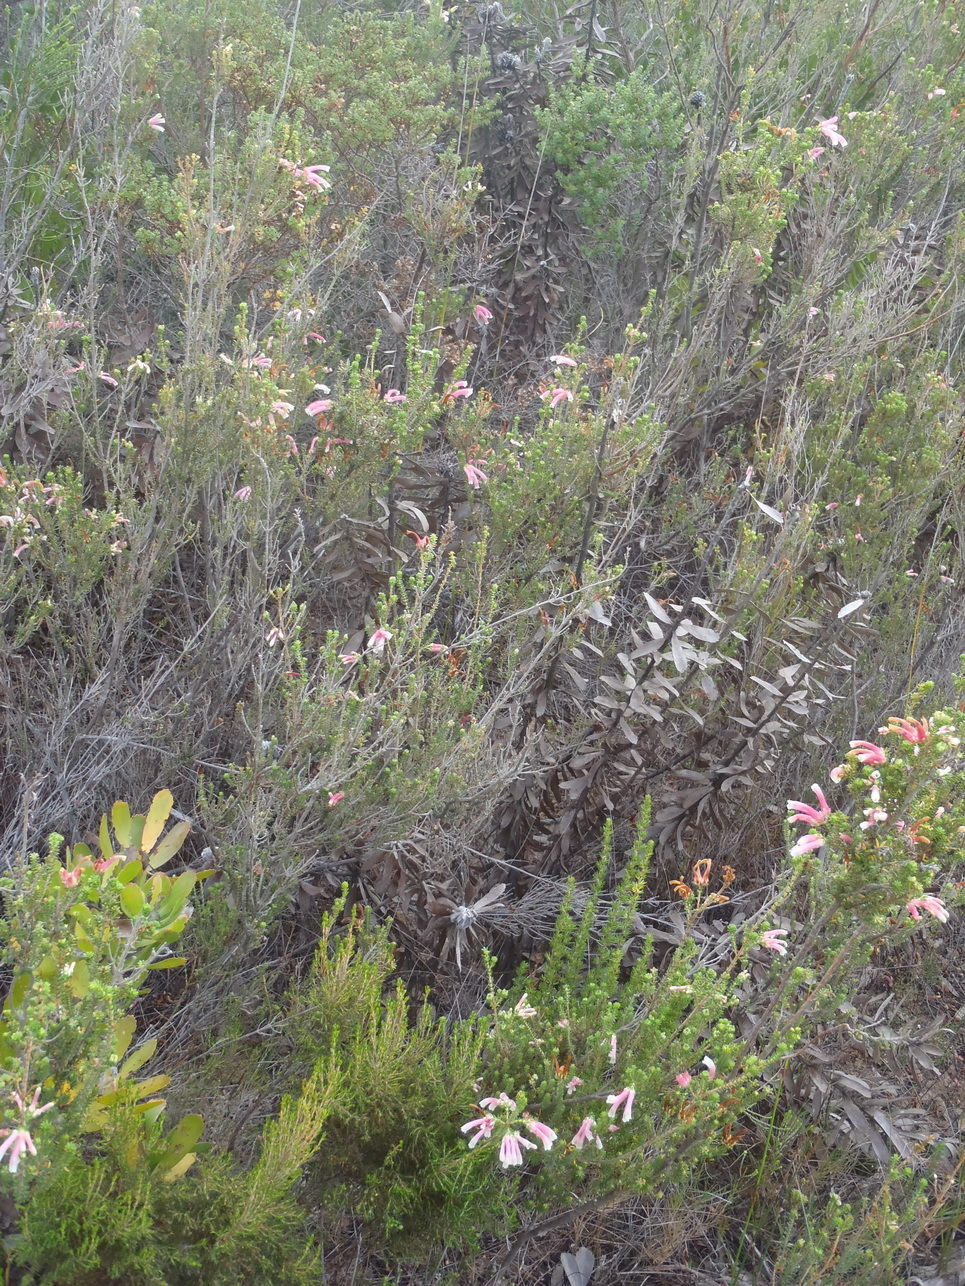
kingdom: Plantae
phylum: Tracheophyta
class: Magnoliopsida
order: Ericales
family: Ericaceae
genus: Erica
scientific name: Erica versicolor
